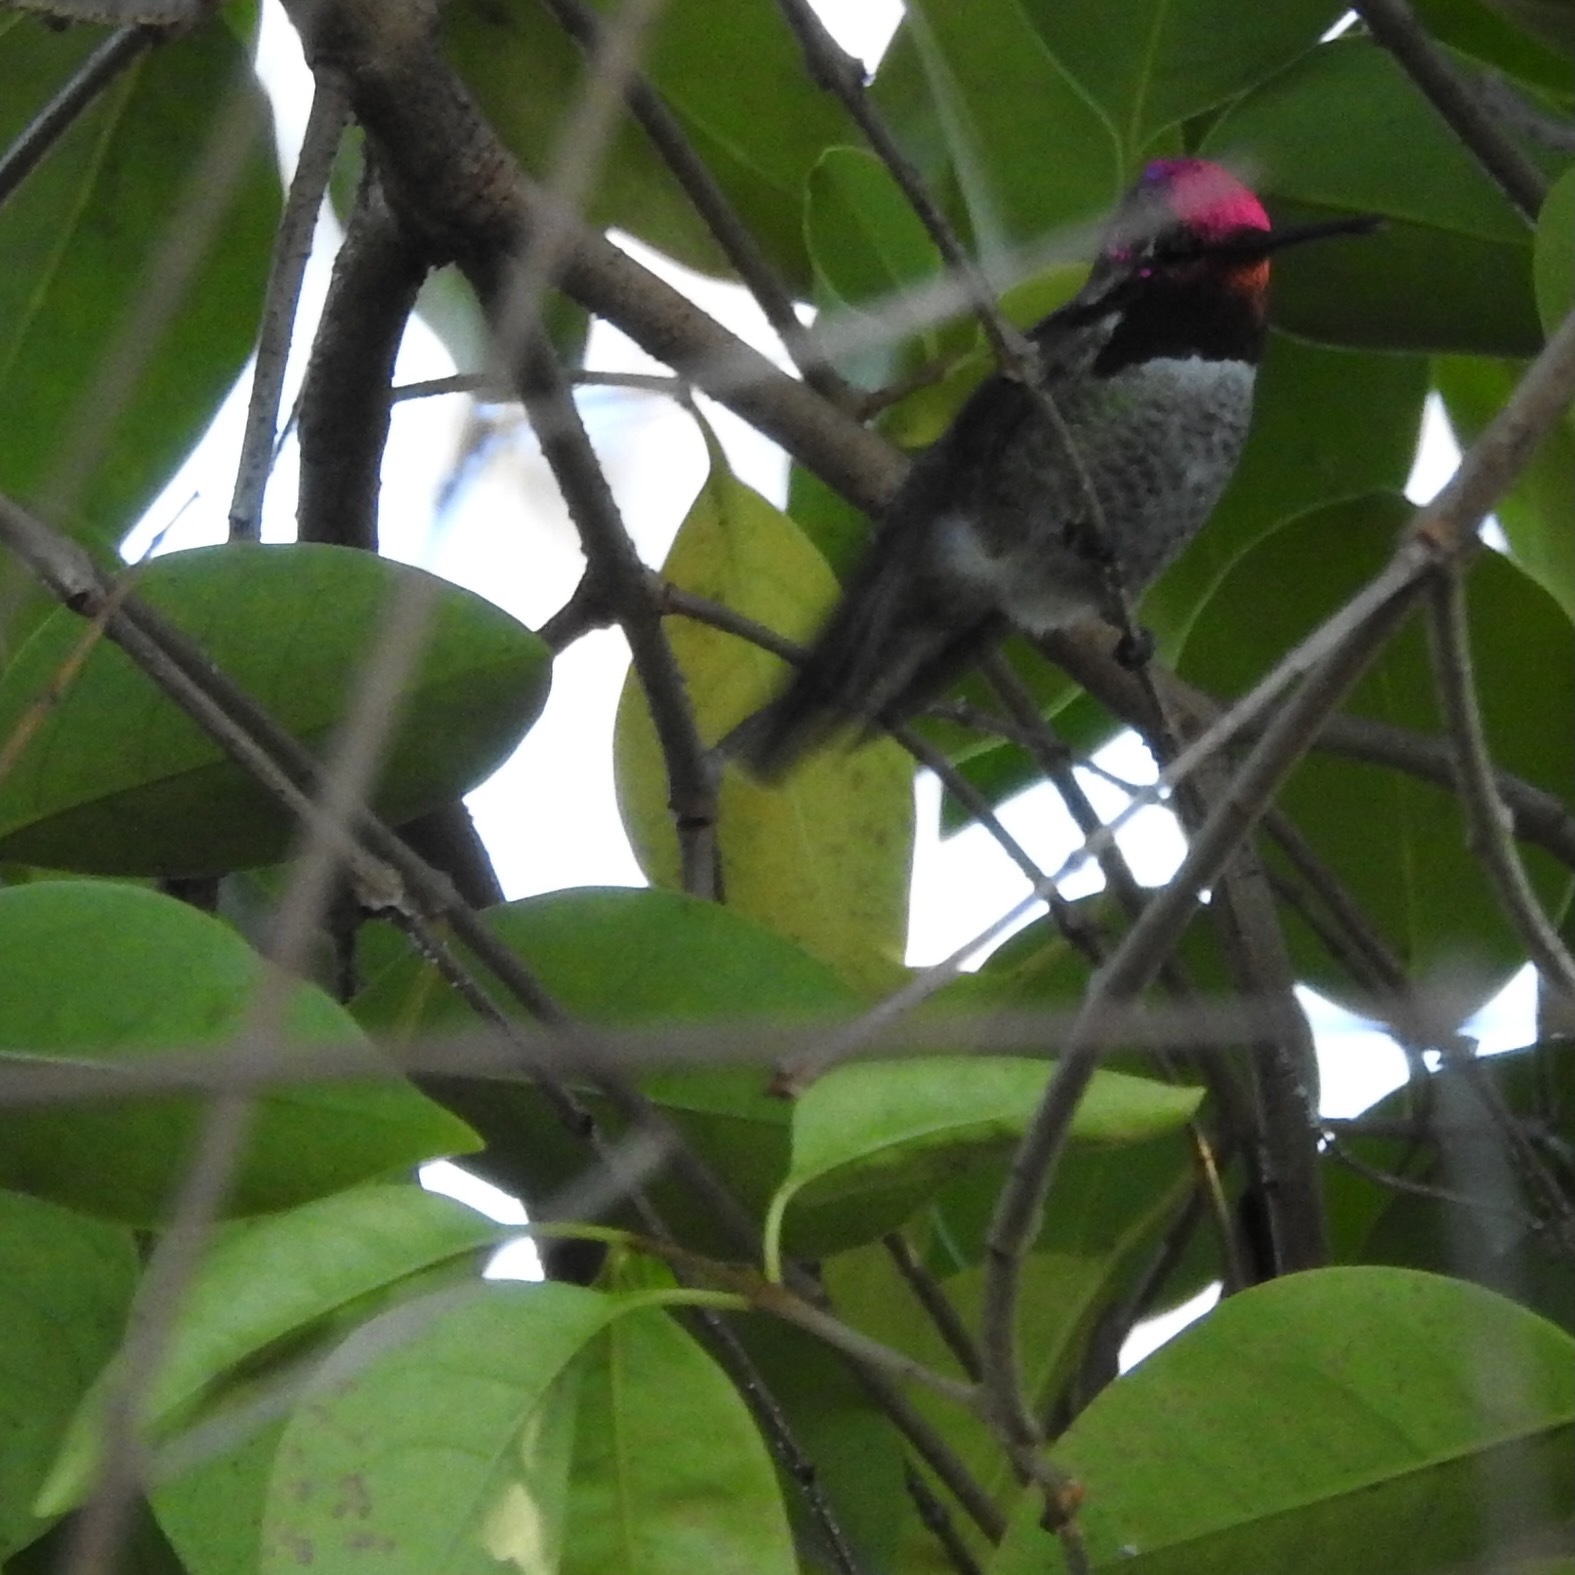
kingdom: Animalia
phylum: Chordata
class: Aves
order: Apodiformes
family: Trochilidae
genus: Calypte
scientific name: Calypte anna
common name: Anna's hummingbird
